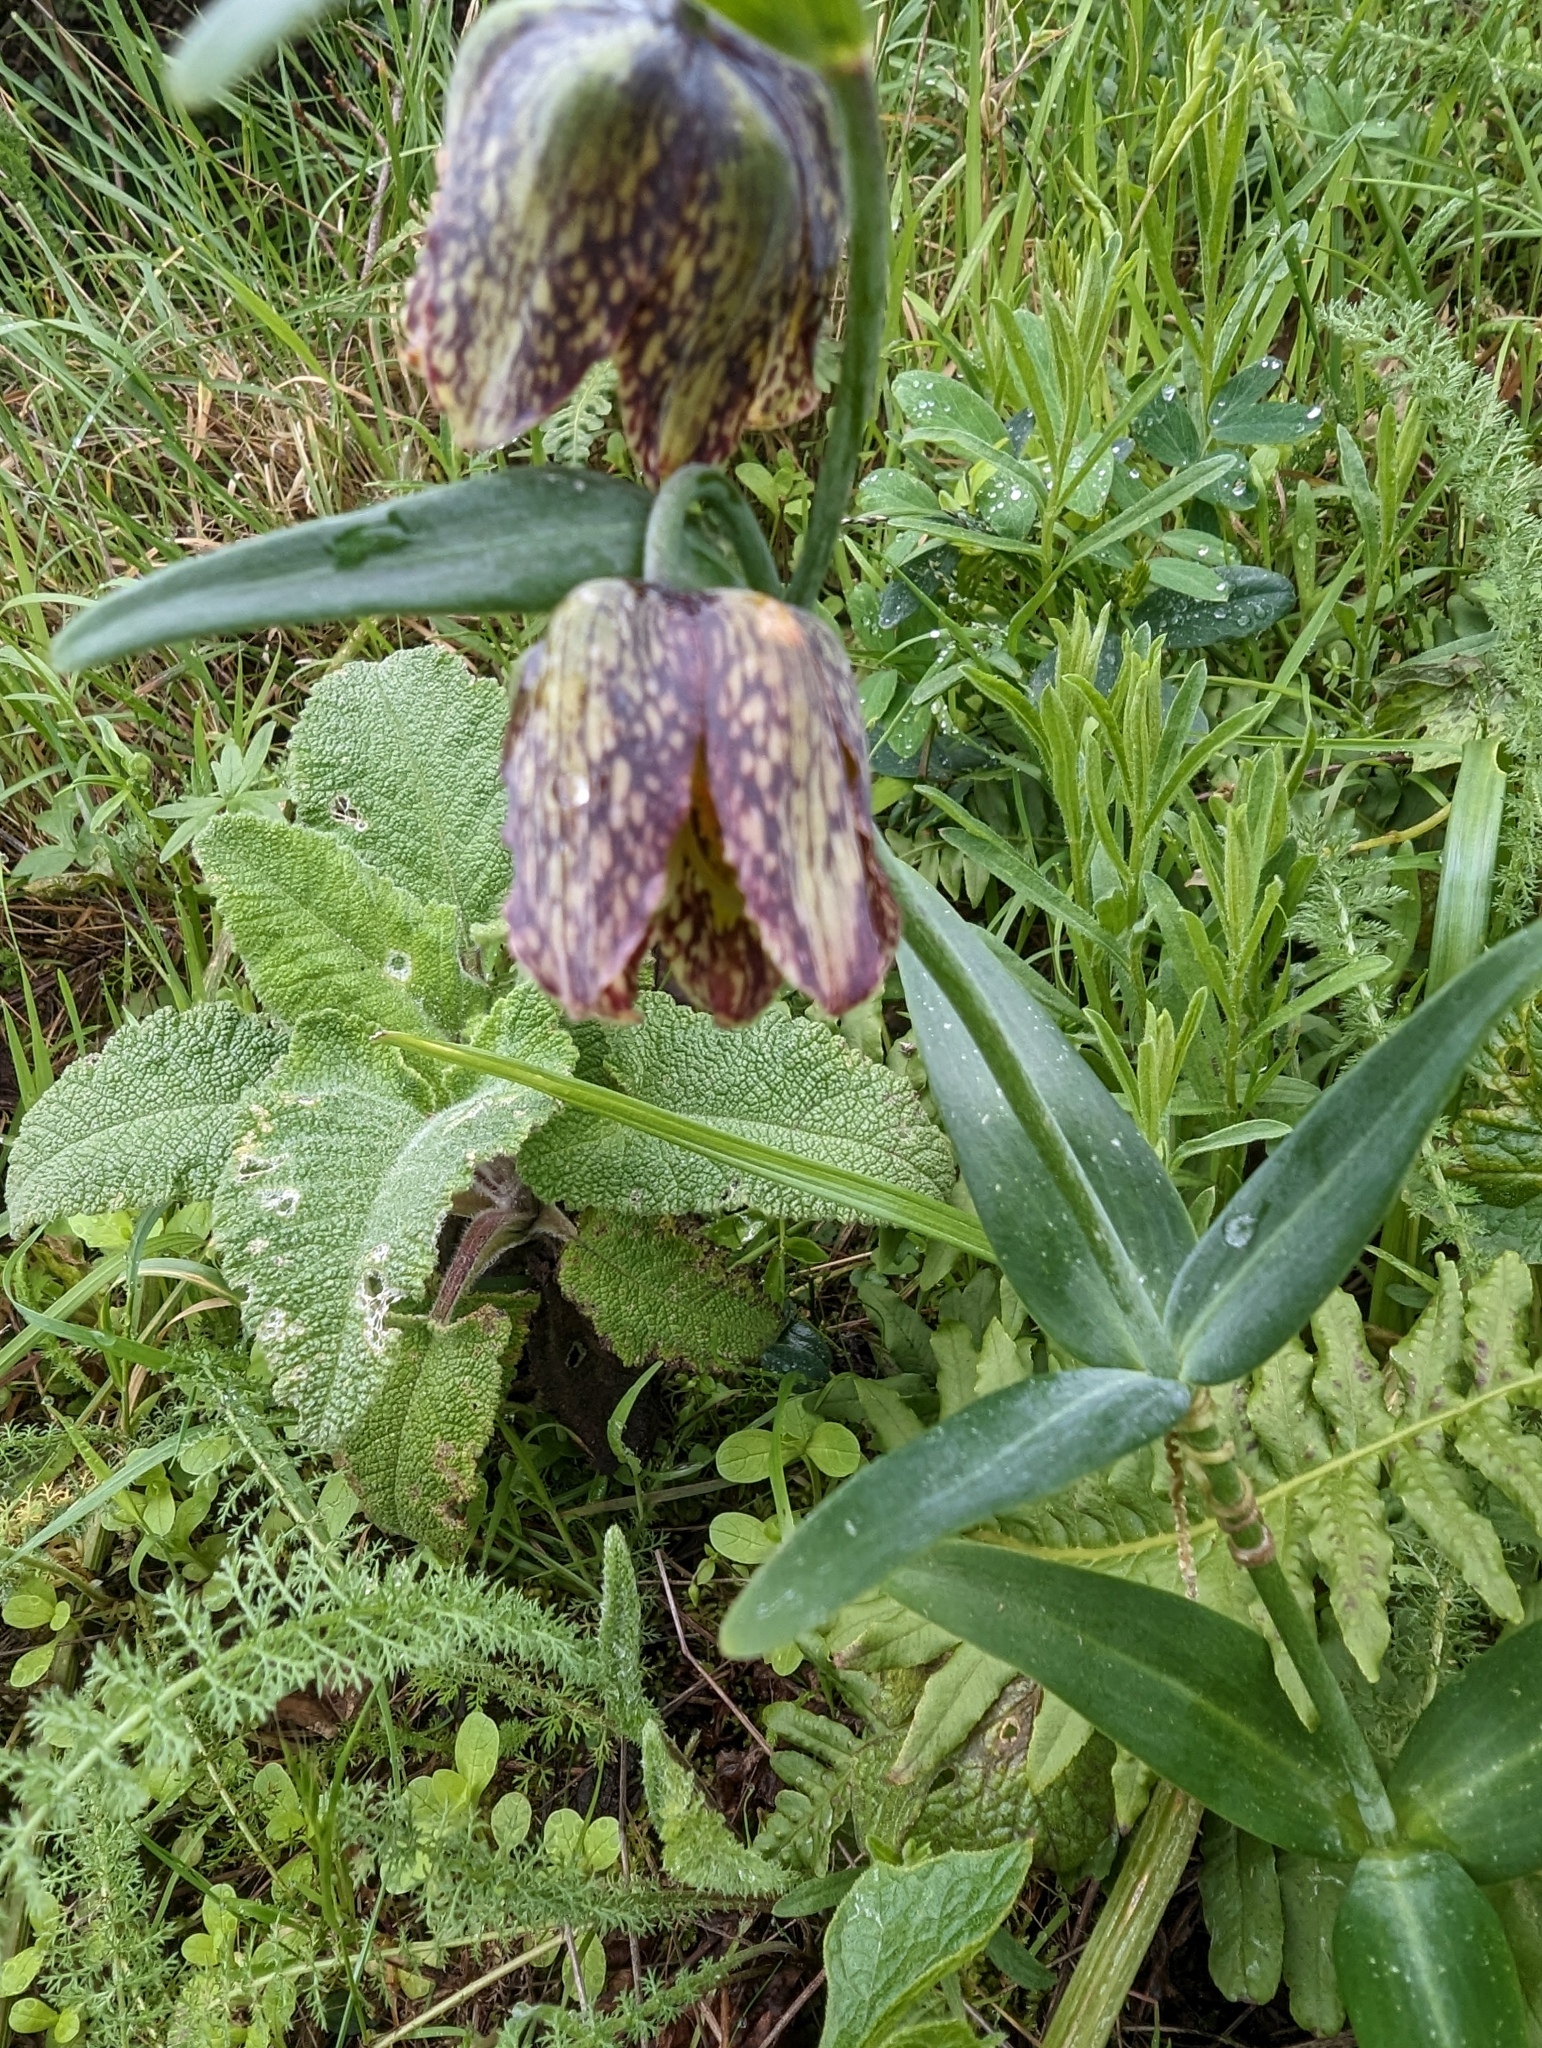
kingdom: Plantae
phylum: Tracheophyta
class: Liliopsida
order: Liliales
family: Liliaceae
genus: Fritillaria
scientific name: Fritillaria affinis
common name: Ojai fritillary
